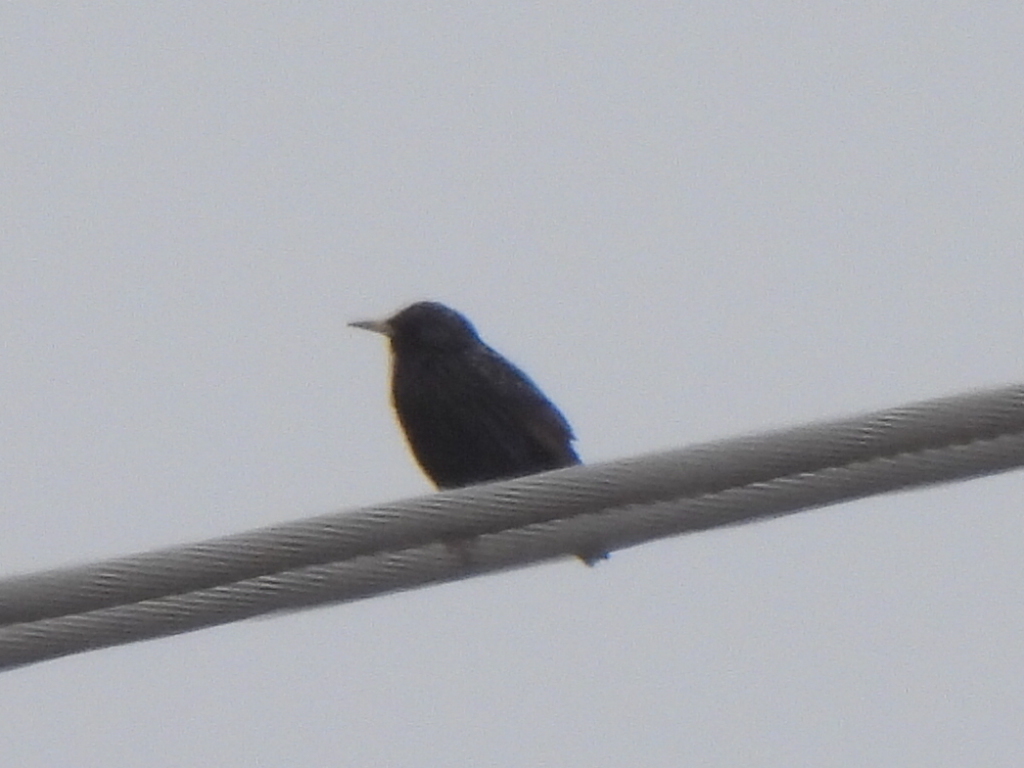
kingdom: Animalia
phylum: Chordata
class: Aves
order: Passeriformes
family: Sturnidae
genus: Sturnus
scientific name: Sturnus vulgaris
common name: Common starling
